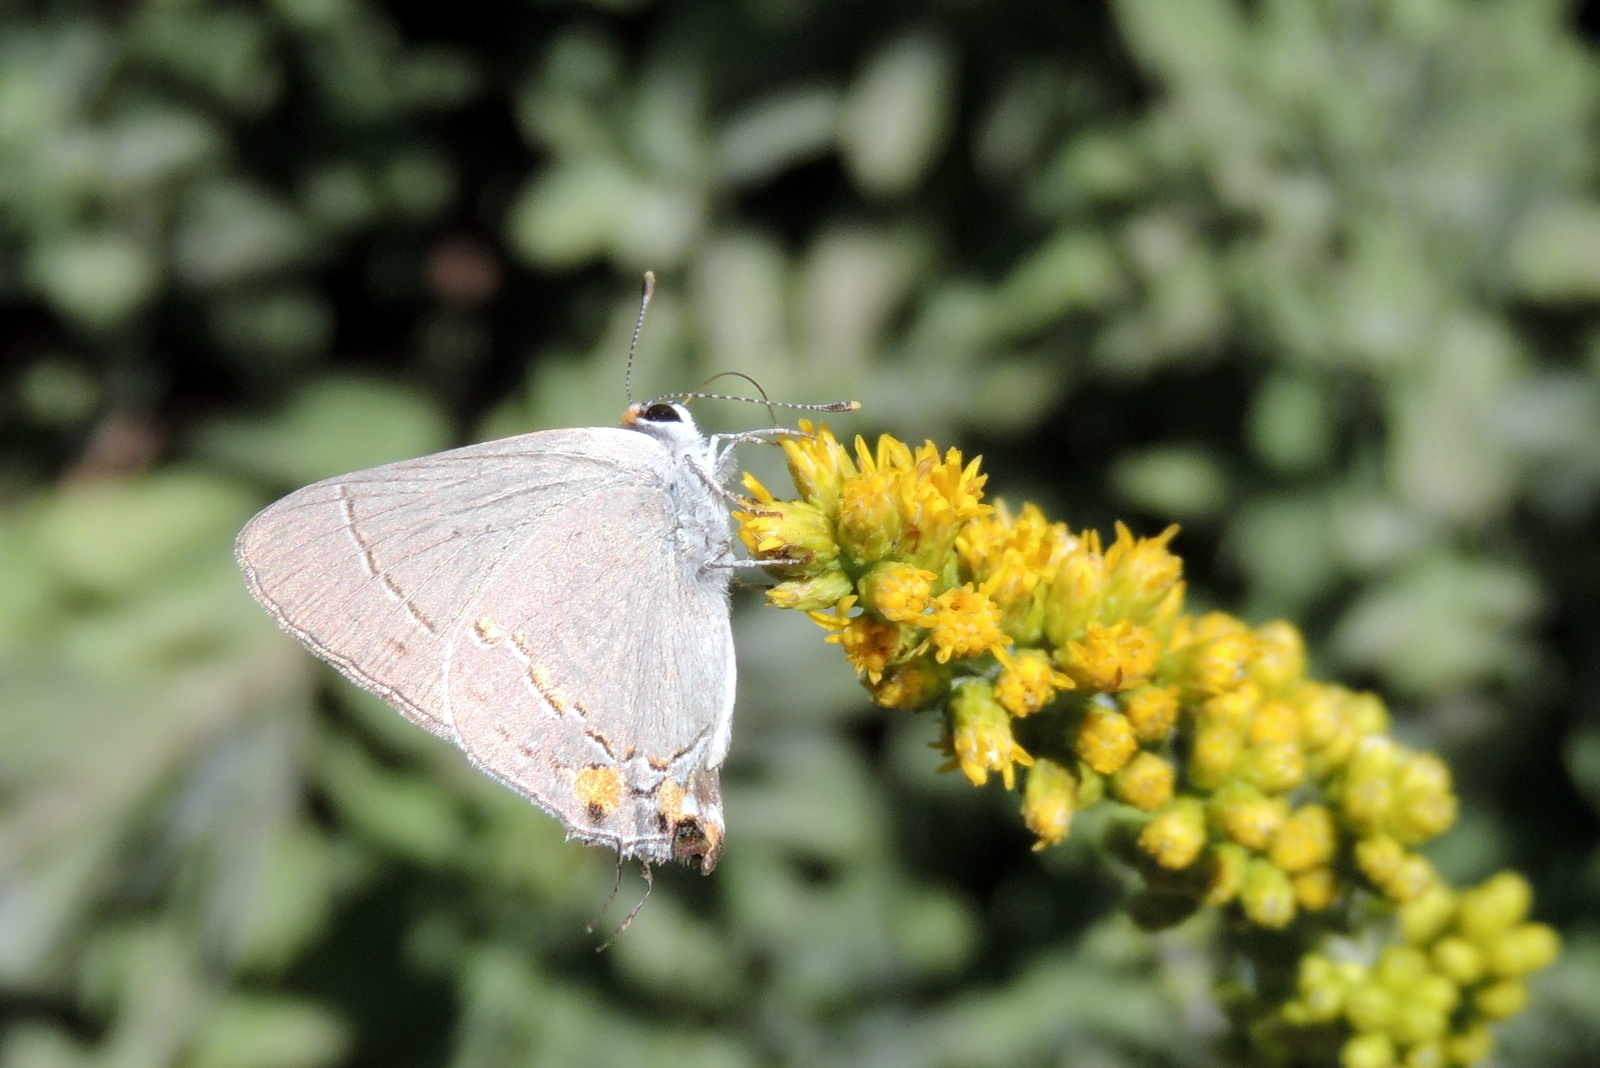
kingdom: Animalia
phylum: Arthropoda
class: Insecta
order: Lepidoptera
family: Lycaenidae
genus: Strymon
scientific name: Strymon melinus
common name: Gray hairstreak
